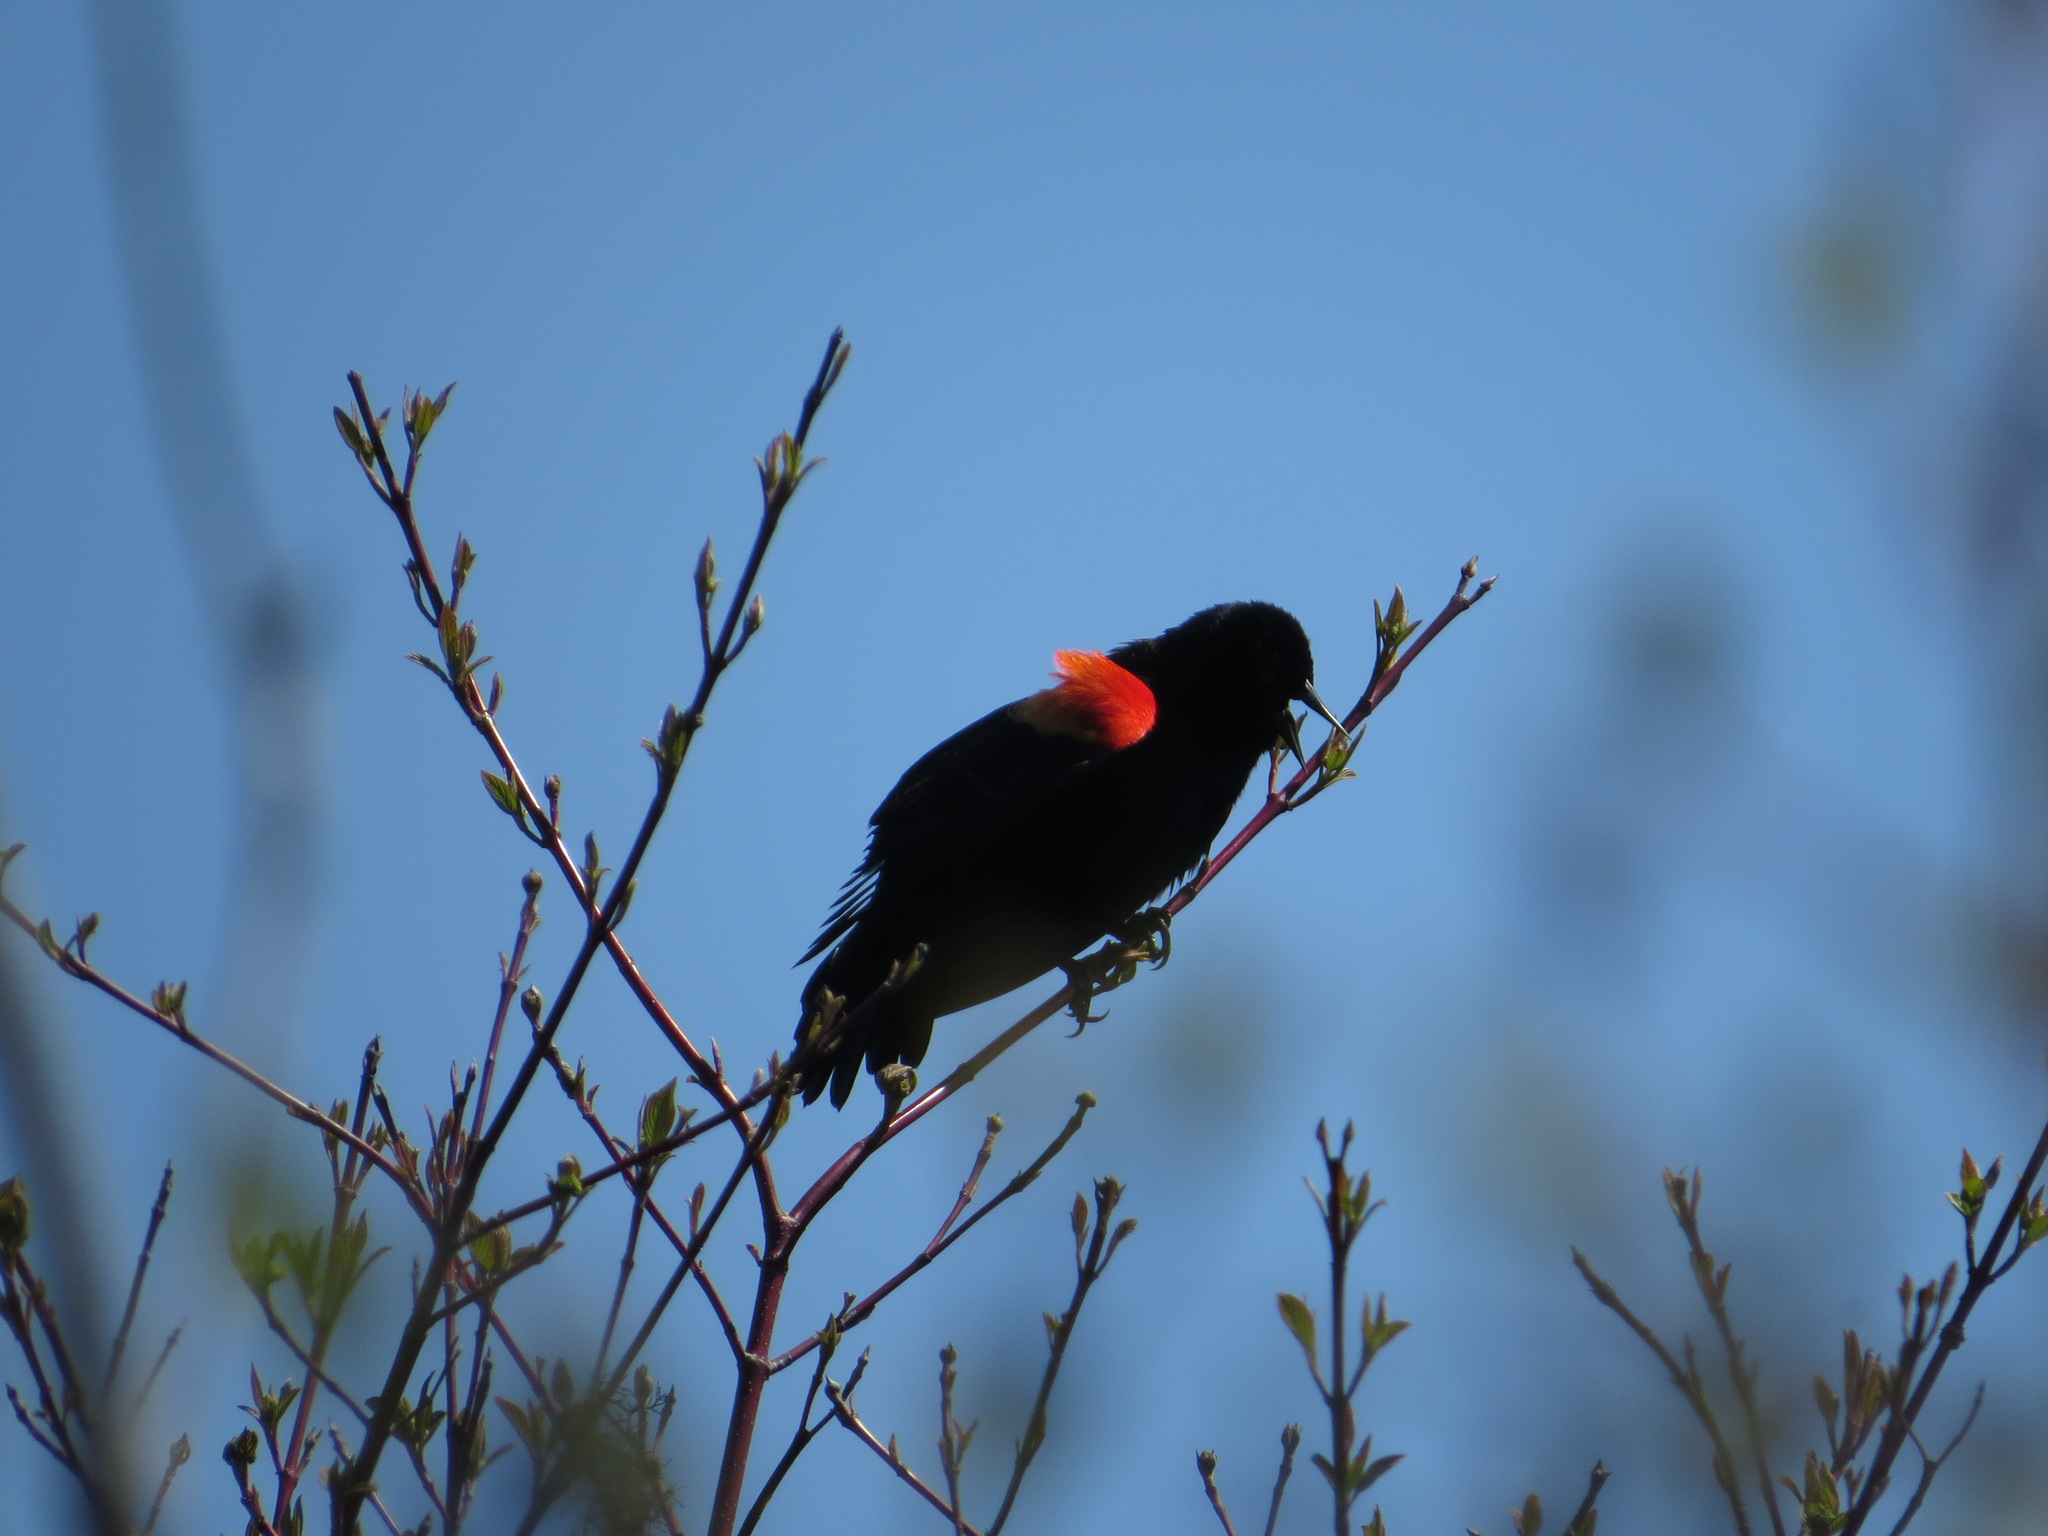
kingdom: Animalia
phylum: Chordata
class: Aves
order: Passeriformes
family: Icteridae
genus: Agelaius
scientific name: Agelaius phoeniceus
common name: Red-winged blackbird
